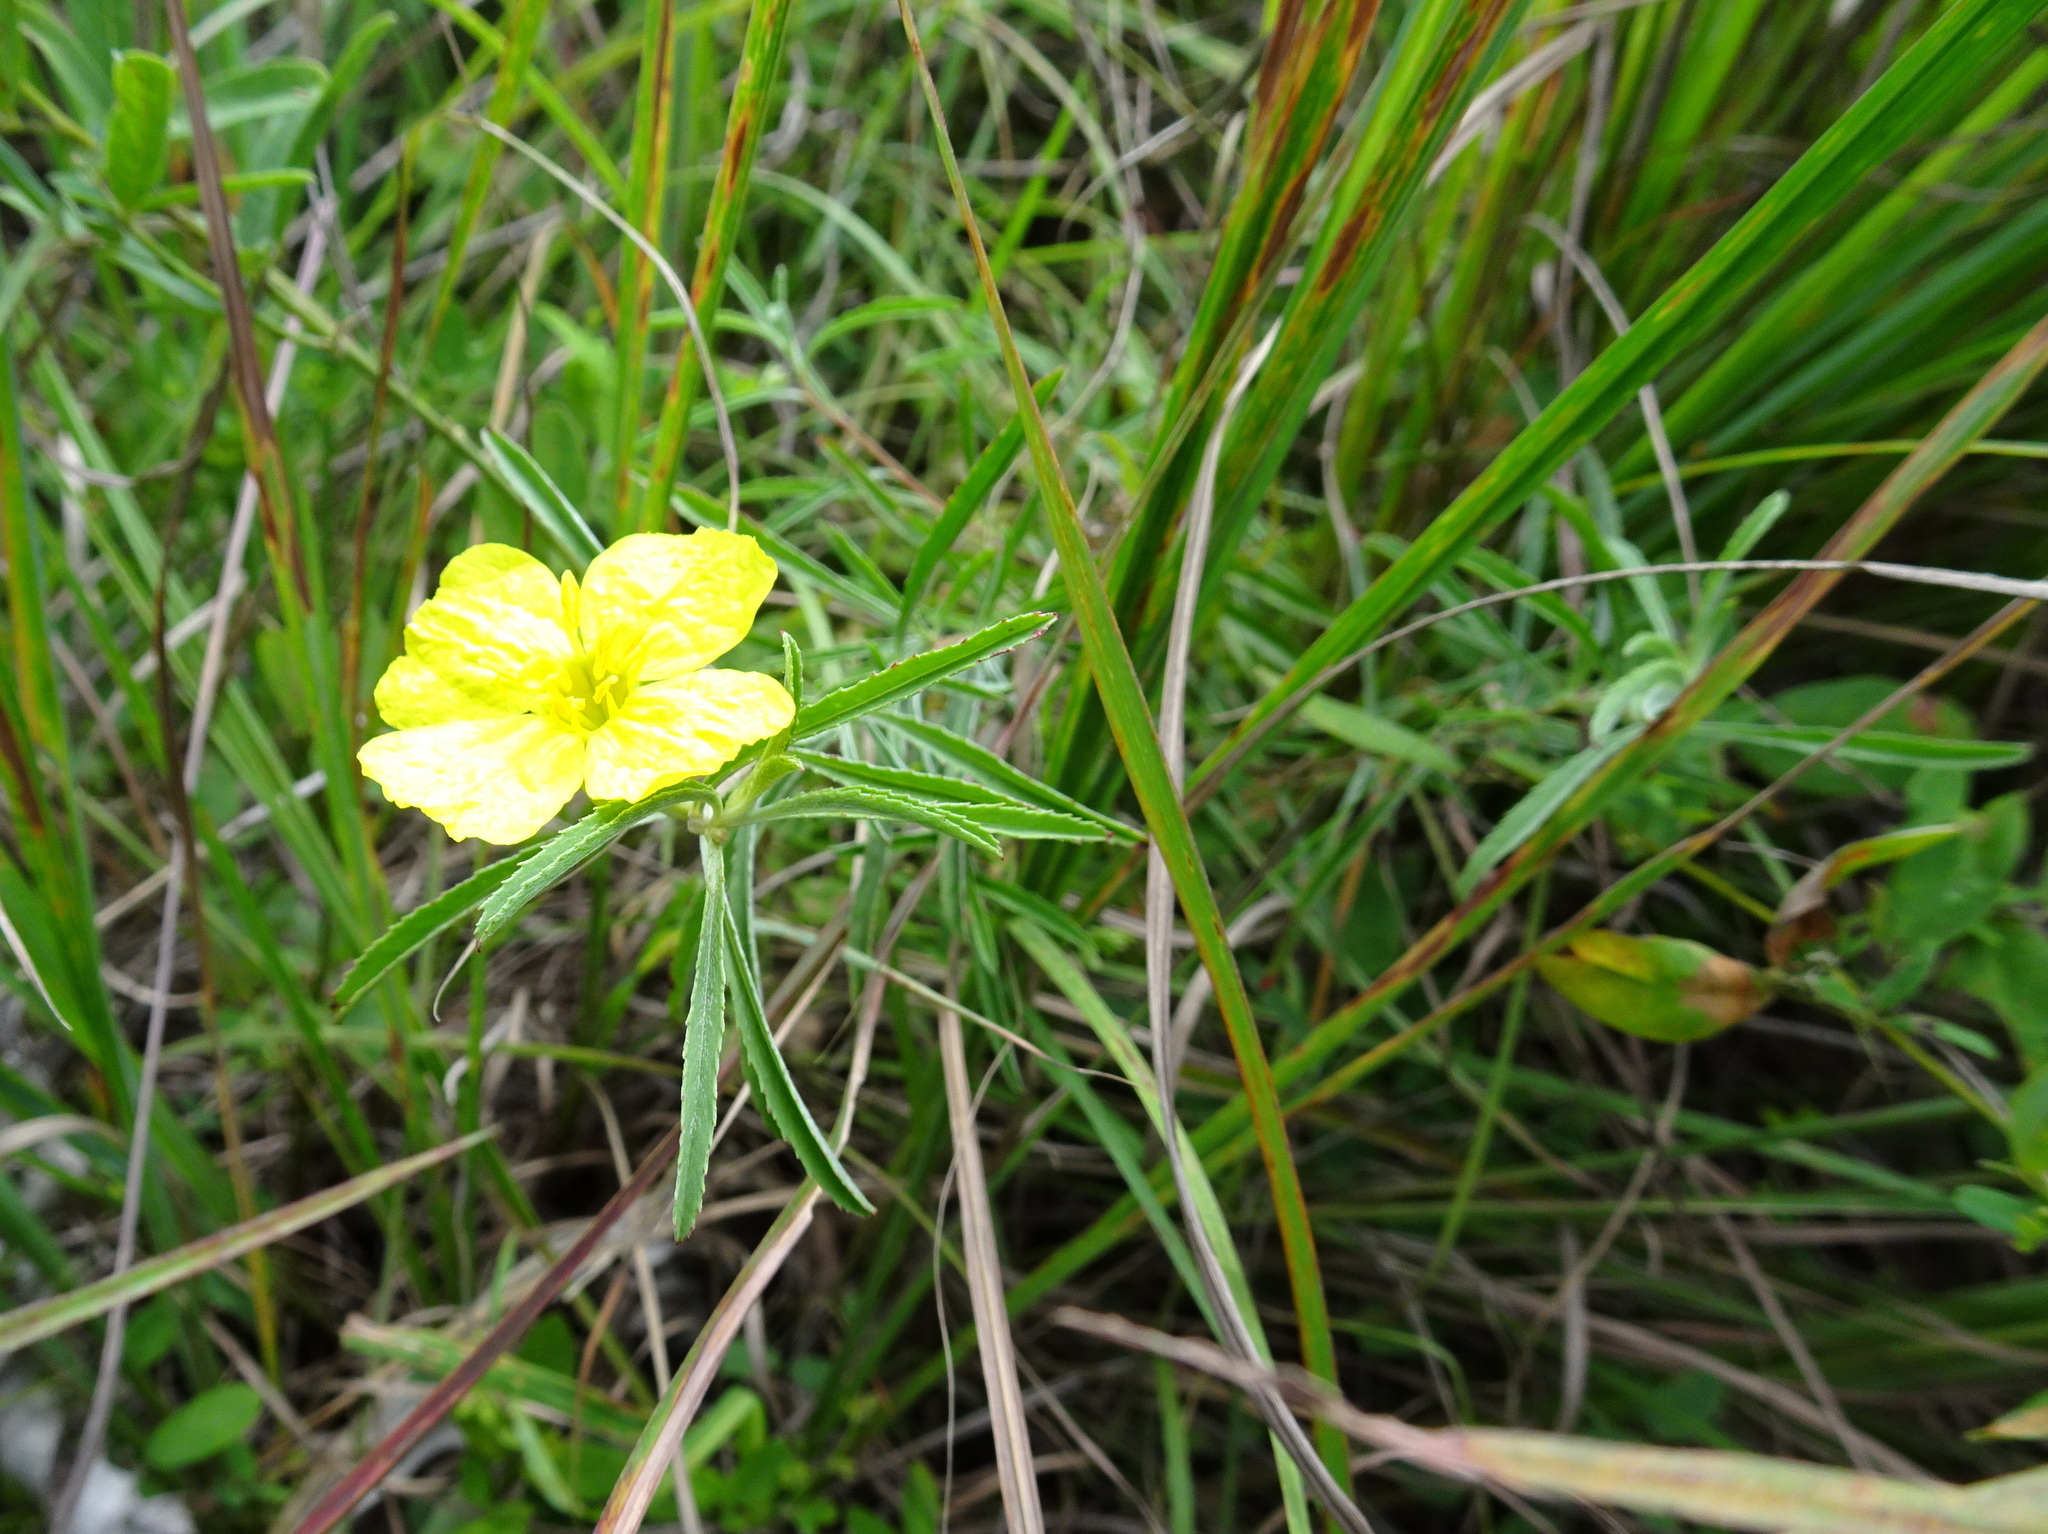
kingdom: Plantae
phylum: Tracheophyta
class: Magnoliopsida
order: Myrtales
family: Onagraceae
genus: Oenothera
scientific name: Oenothera serrulata
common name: Half-shrub calylophus
